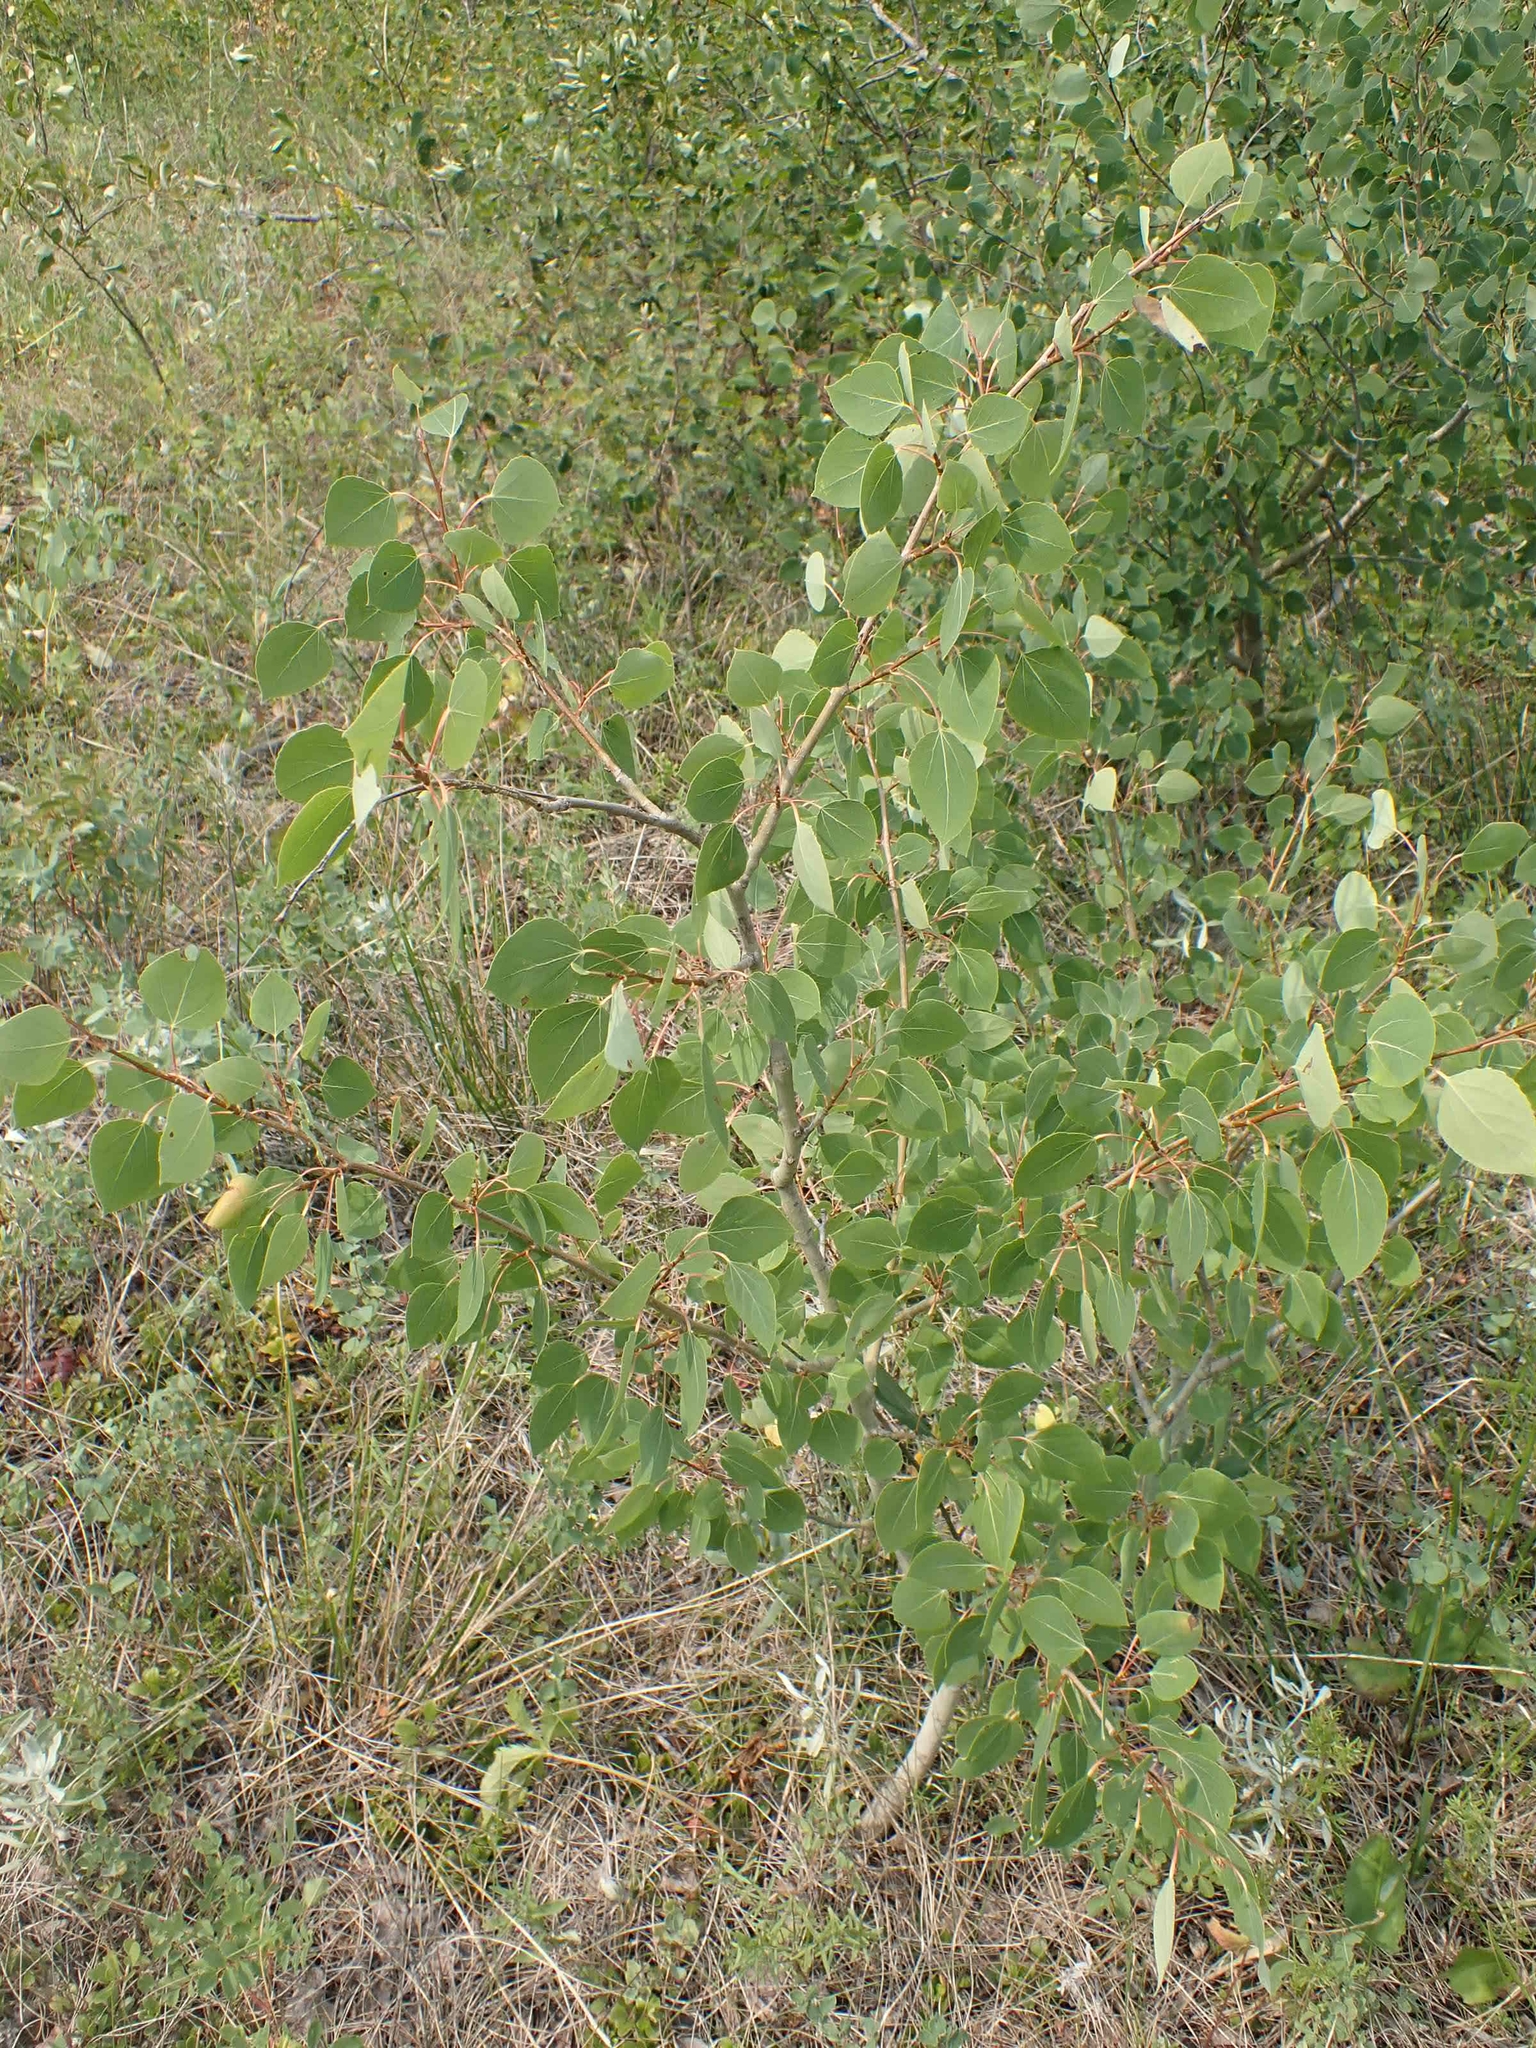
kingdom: Plantae
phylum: Tracheophyta
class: Magnoliopsida
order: Malpighiales
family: Salicaceae
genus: Populus
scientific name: Populus tremuloides
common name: Quaking aspen
